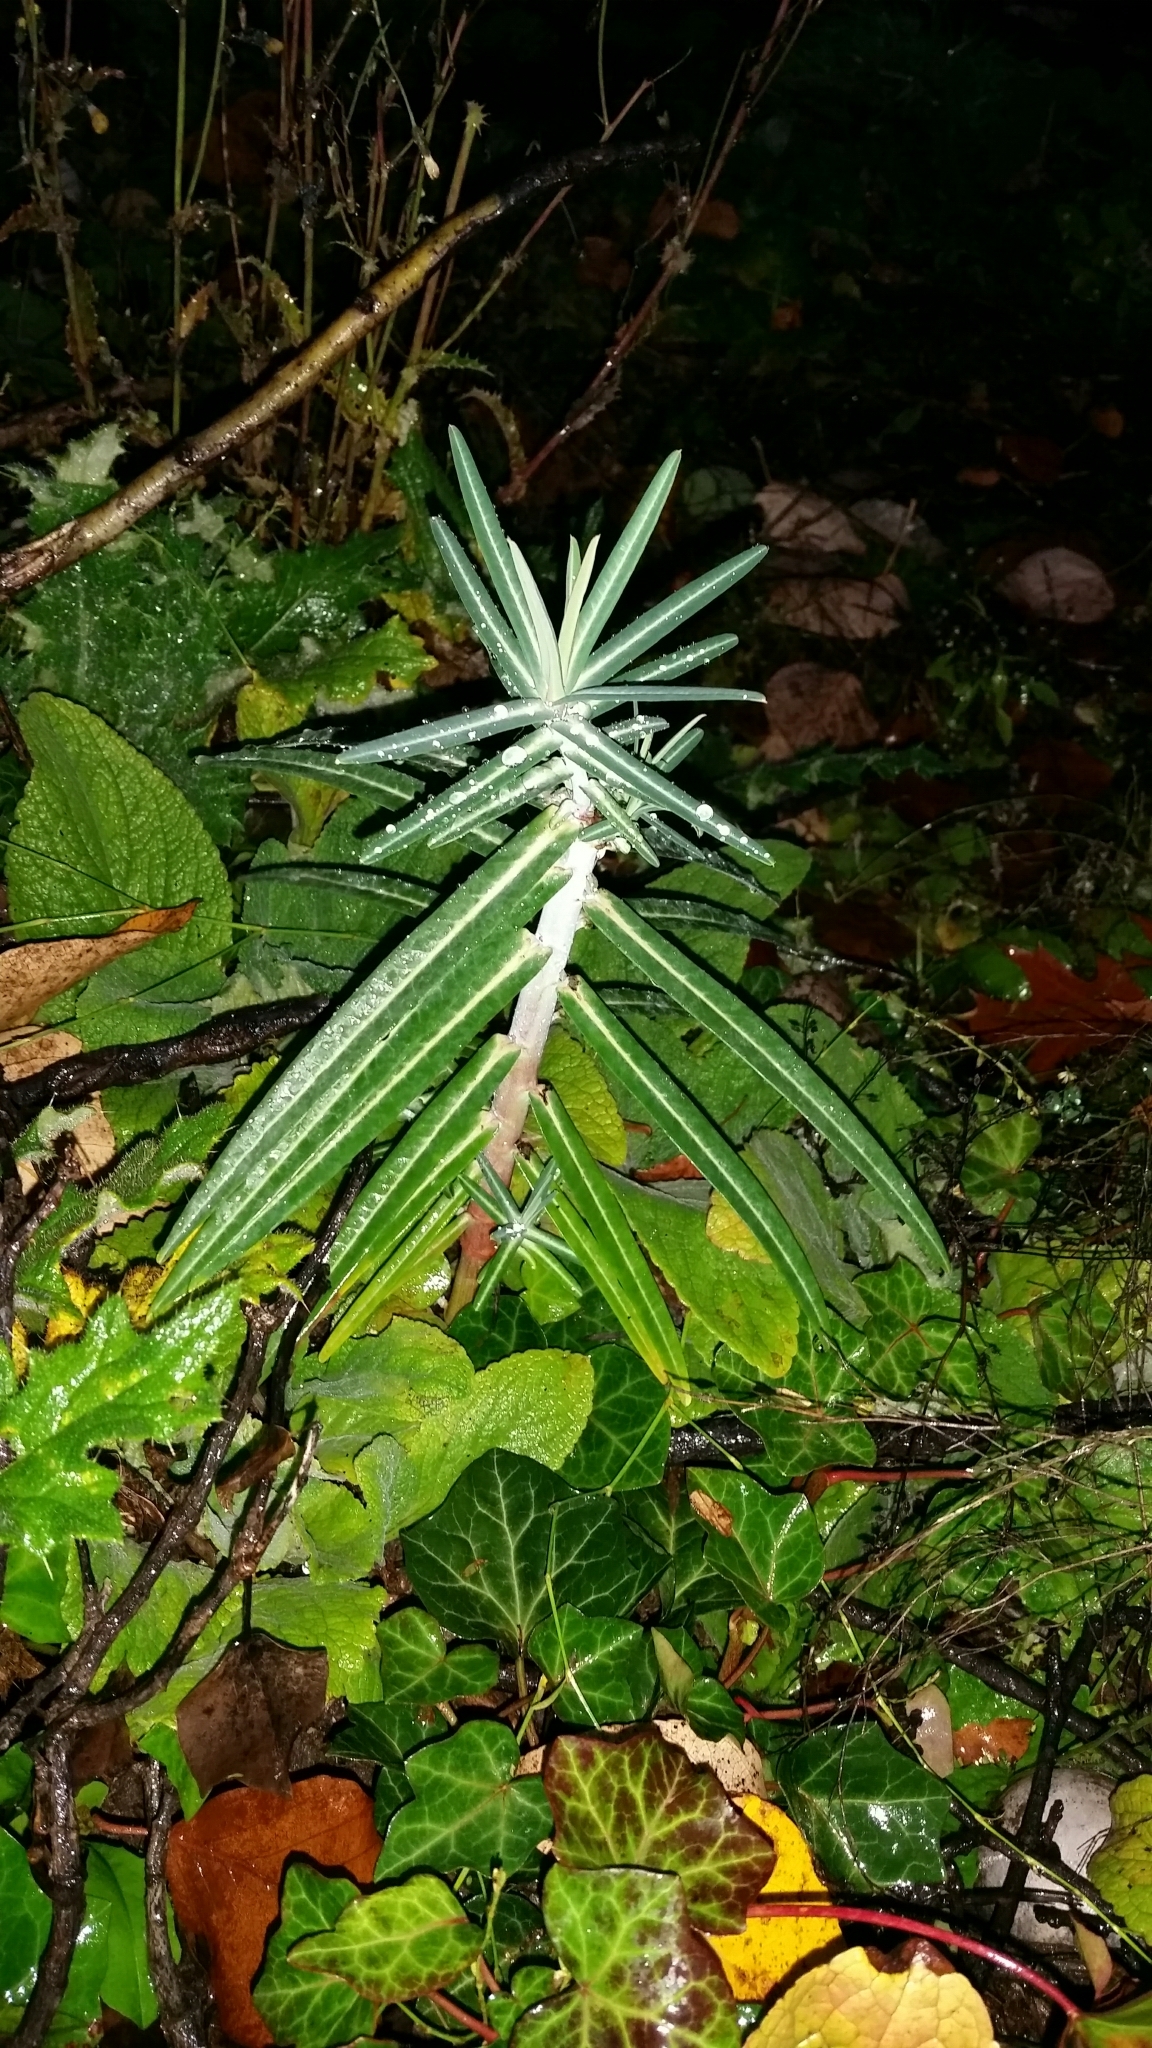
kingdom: Plantae
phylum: Tracheophyta
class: Magnoliopsida
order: Malpighiales
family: Euphorbiaceae
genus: Euphorbia
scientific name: Euphorbia lathyris
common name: Caper spurge
